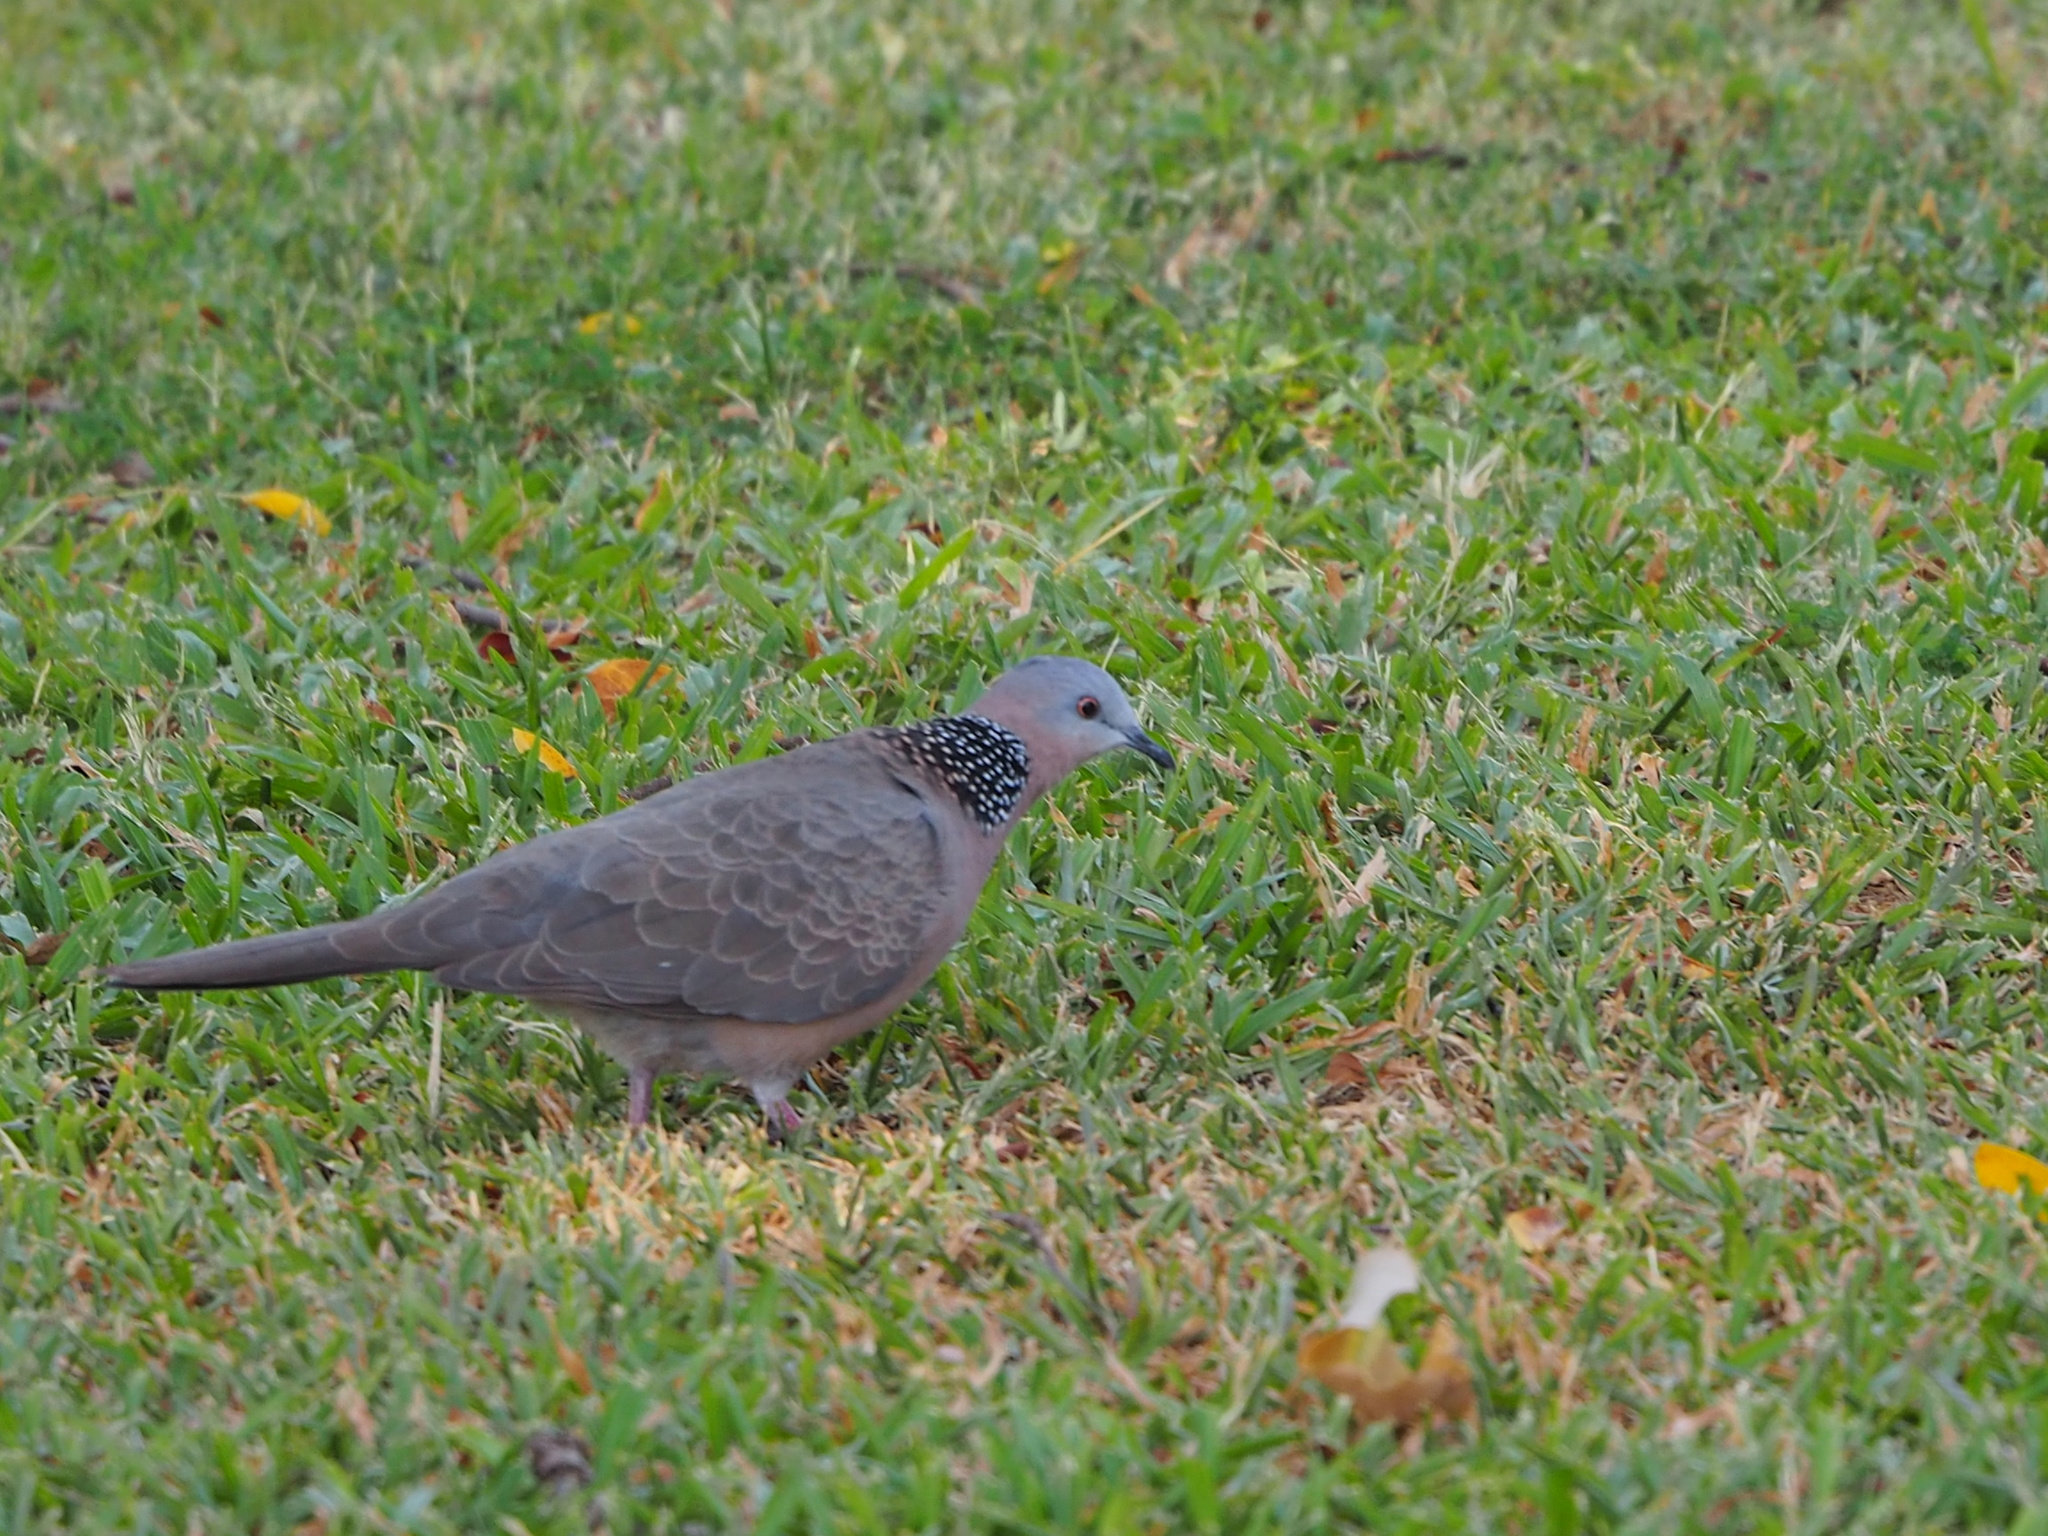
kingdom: Animalia
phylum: Chordata
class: Aves
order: Columbiformes
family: Columbidae
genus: Spilopelia
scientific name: Spilopelia chinensis
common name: Spotted dove
